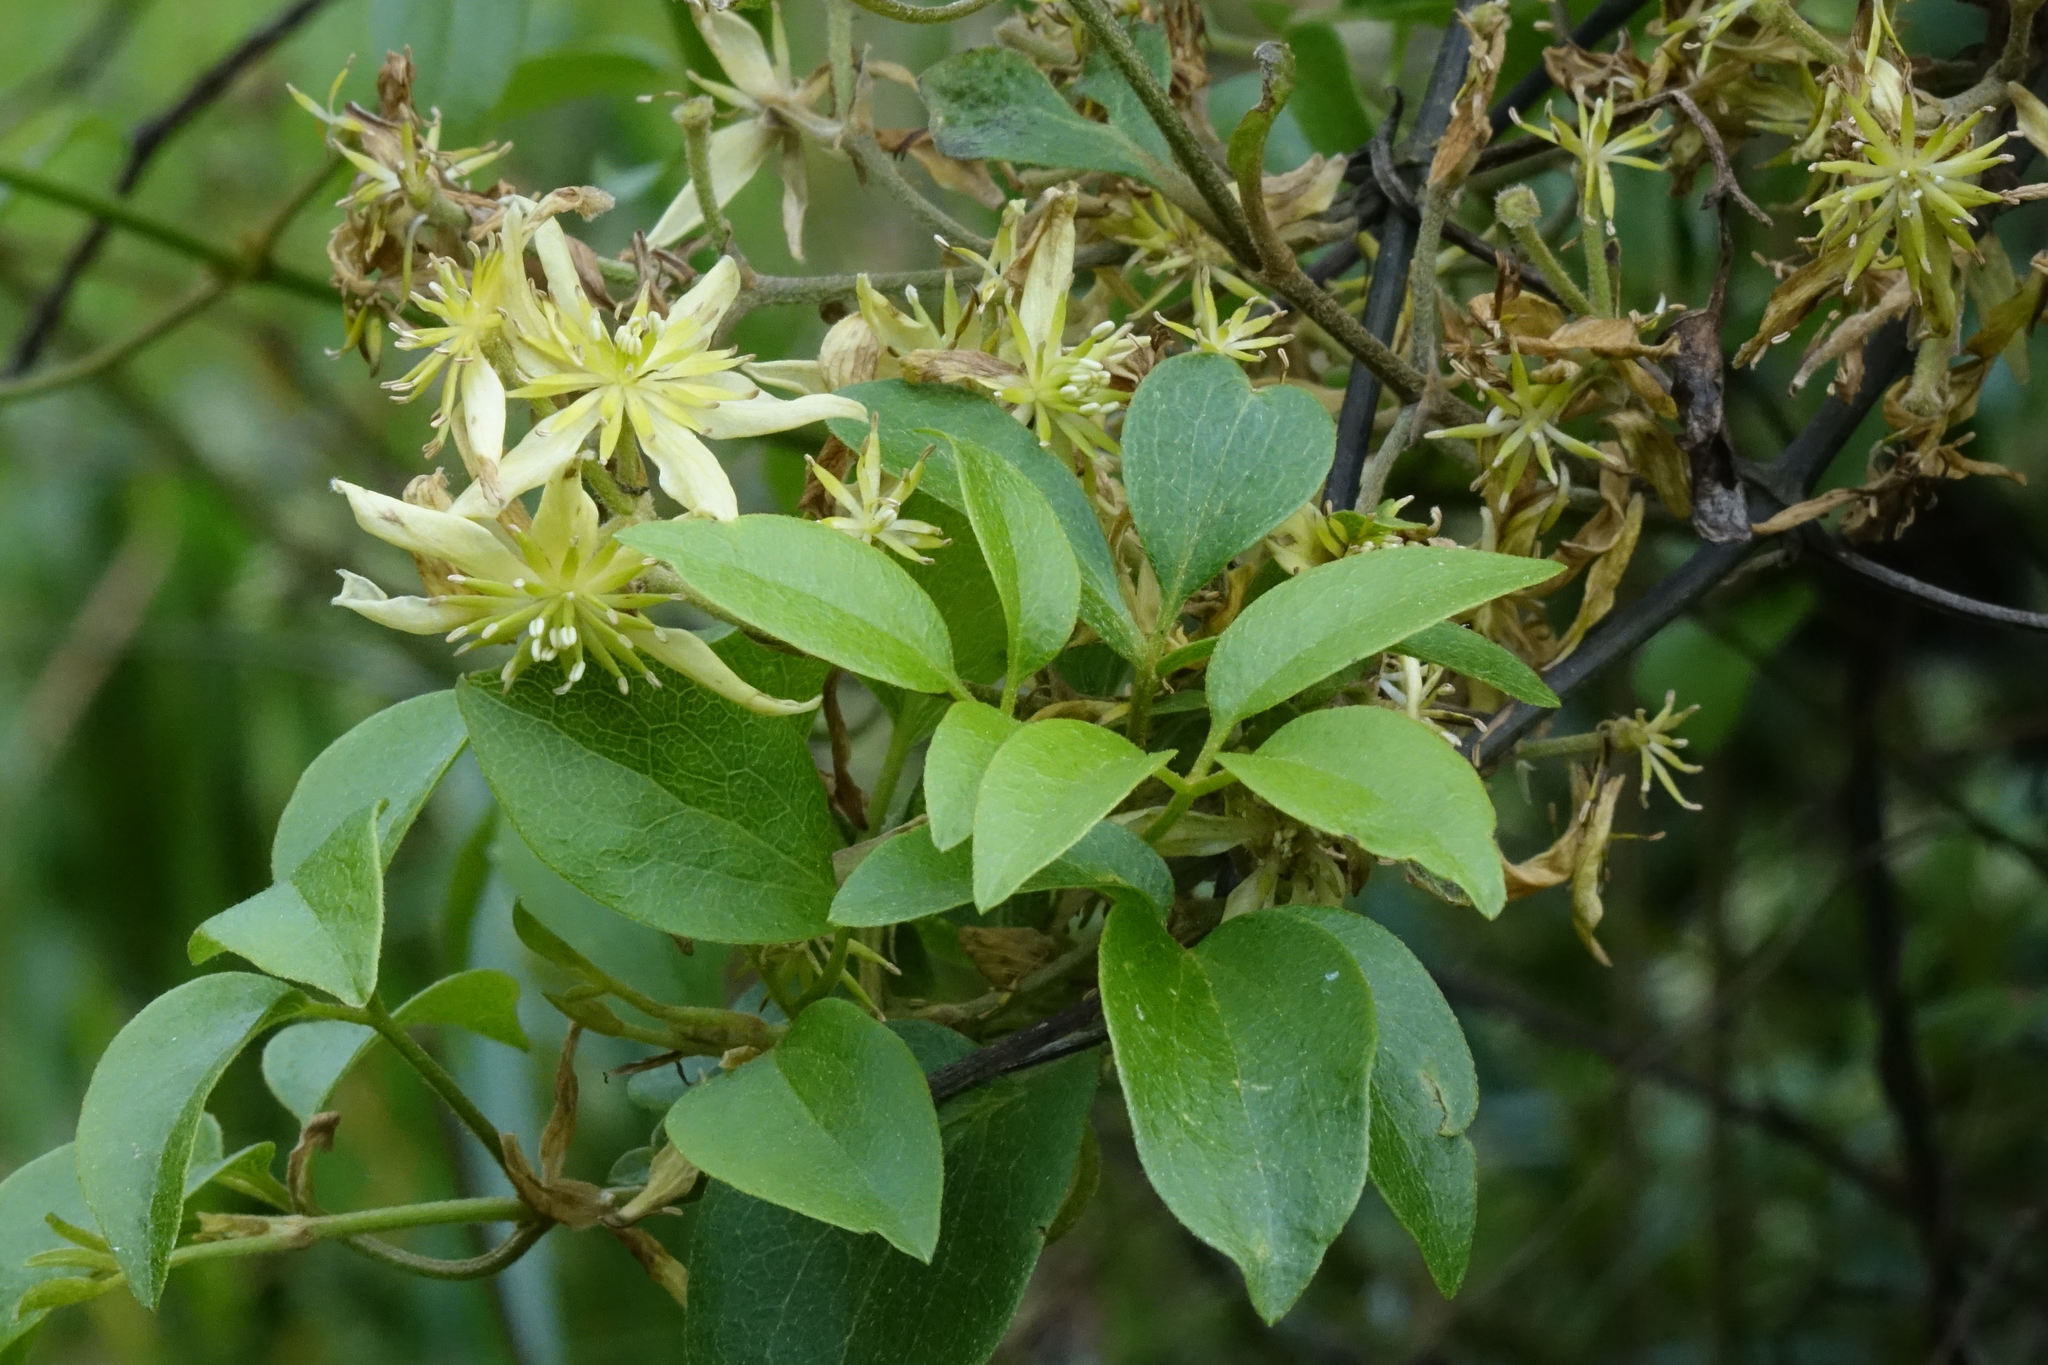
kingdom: Plantae
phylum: Tracheophyta
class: Magnoliopsida
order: Ranunculales
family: Ranunculaceae
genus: Clematis
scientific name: Clematis foetida
